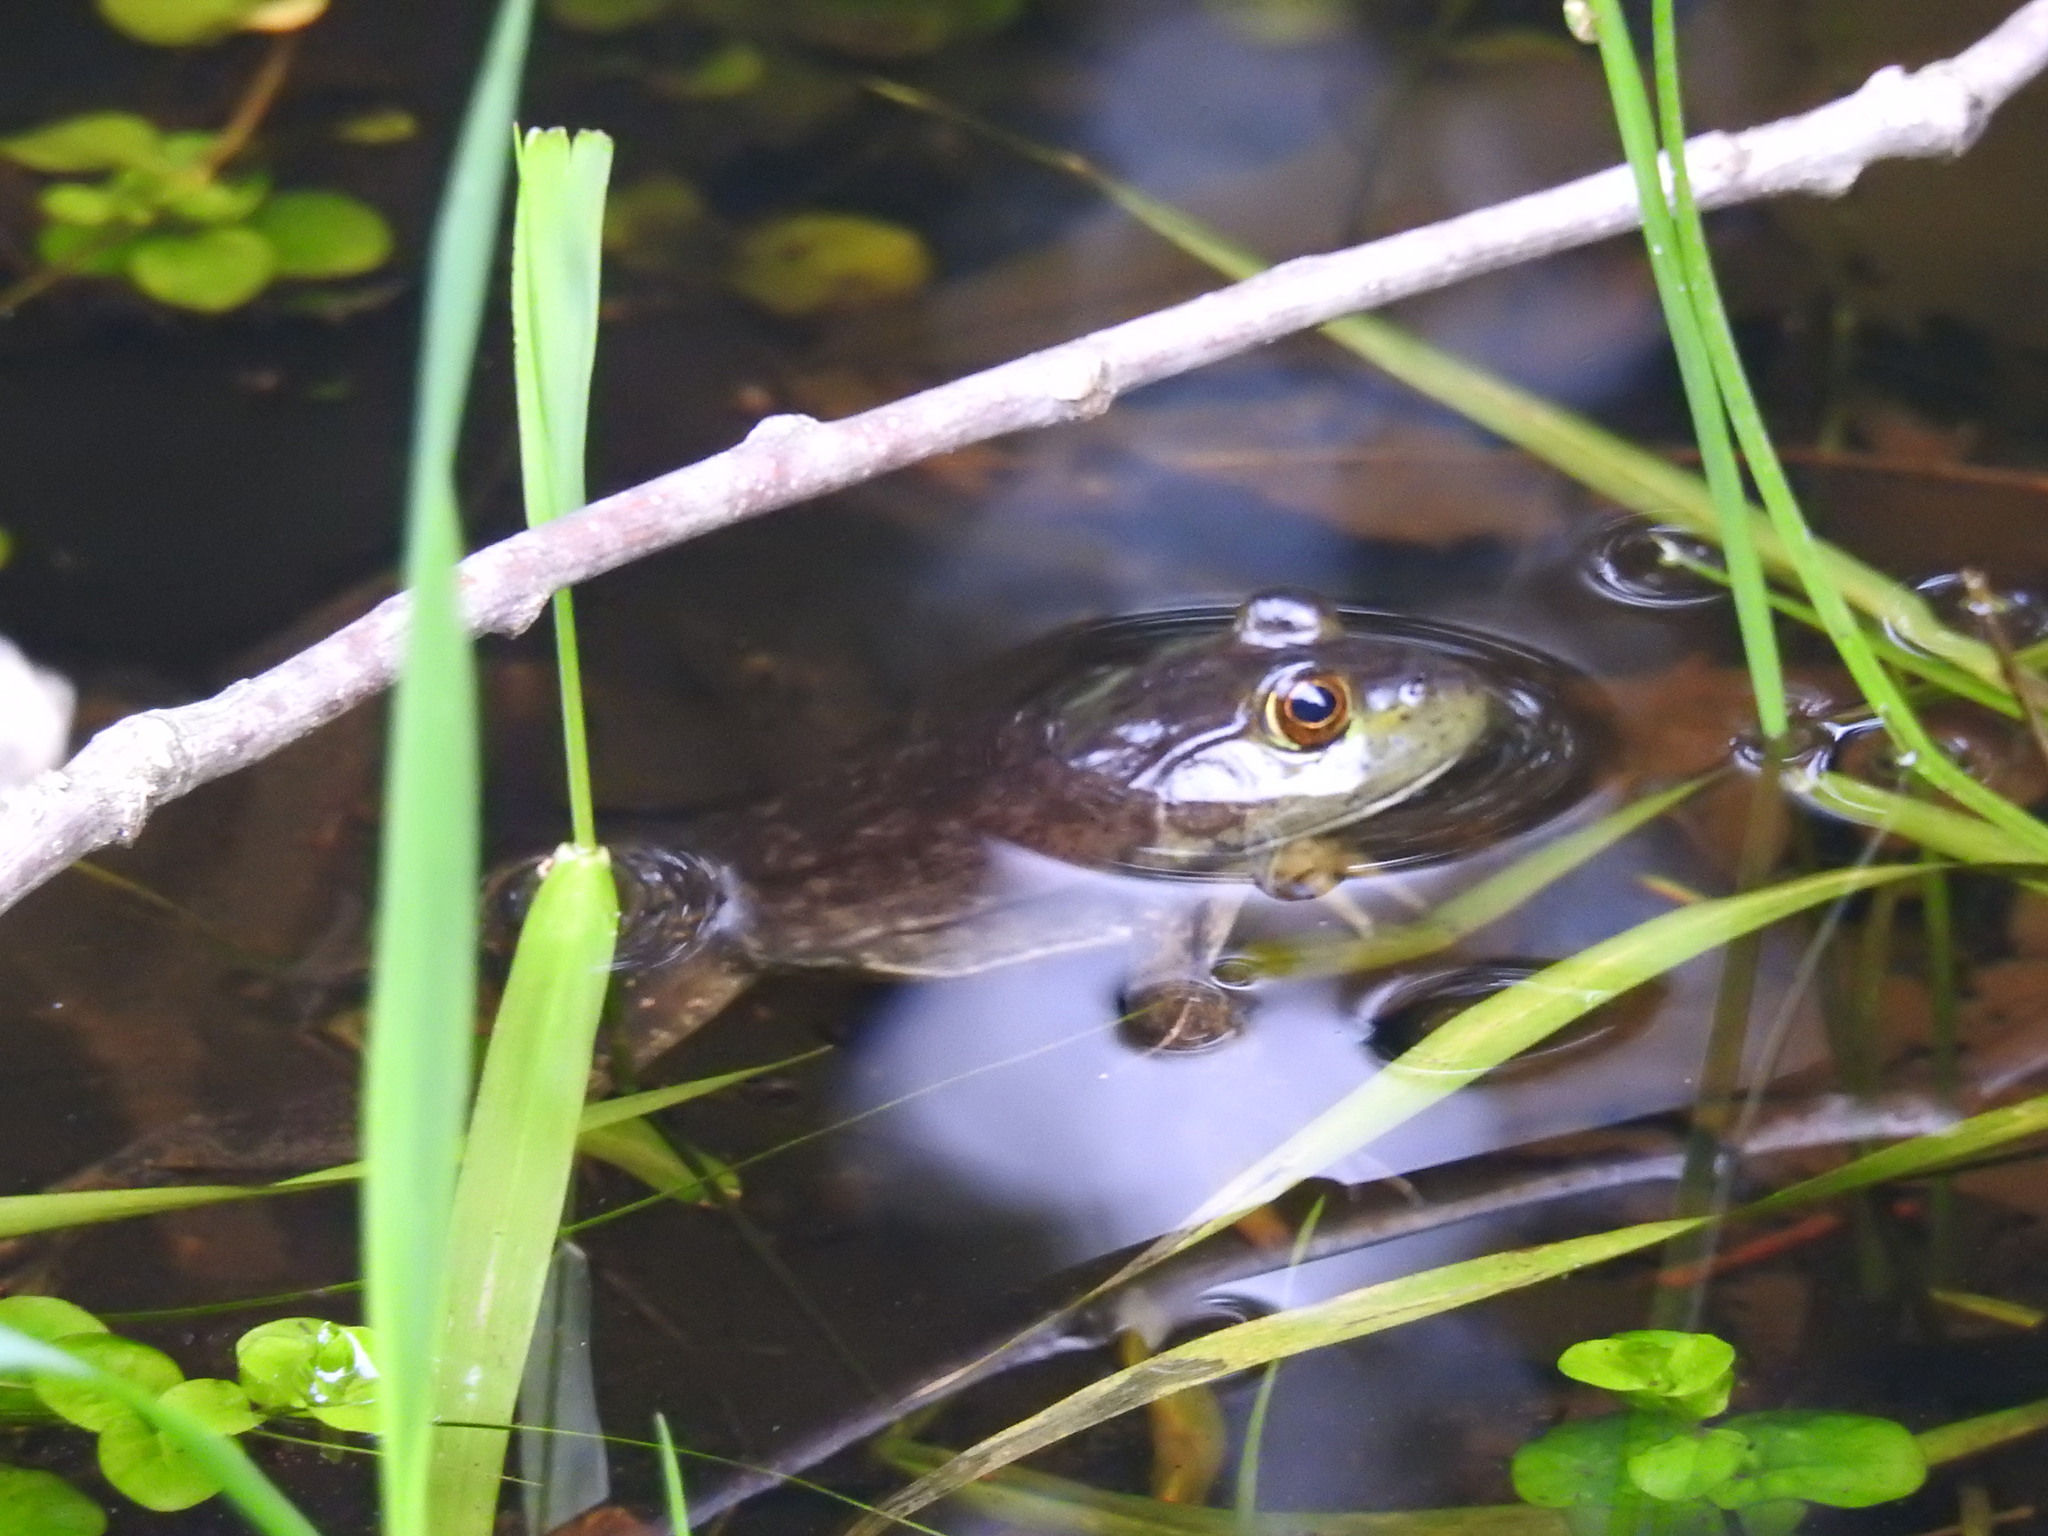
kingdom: Animalia
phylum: Chordata
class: Amphibia
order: Anura
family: Ranidae
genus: Lithobates
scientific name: Lithobates catesbeianus
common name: American bullfrog
